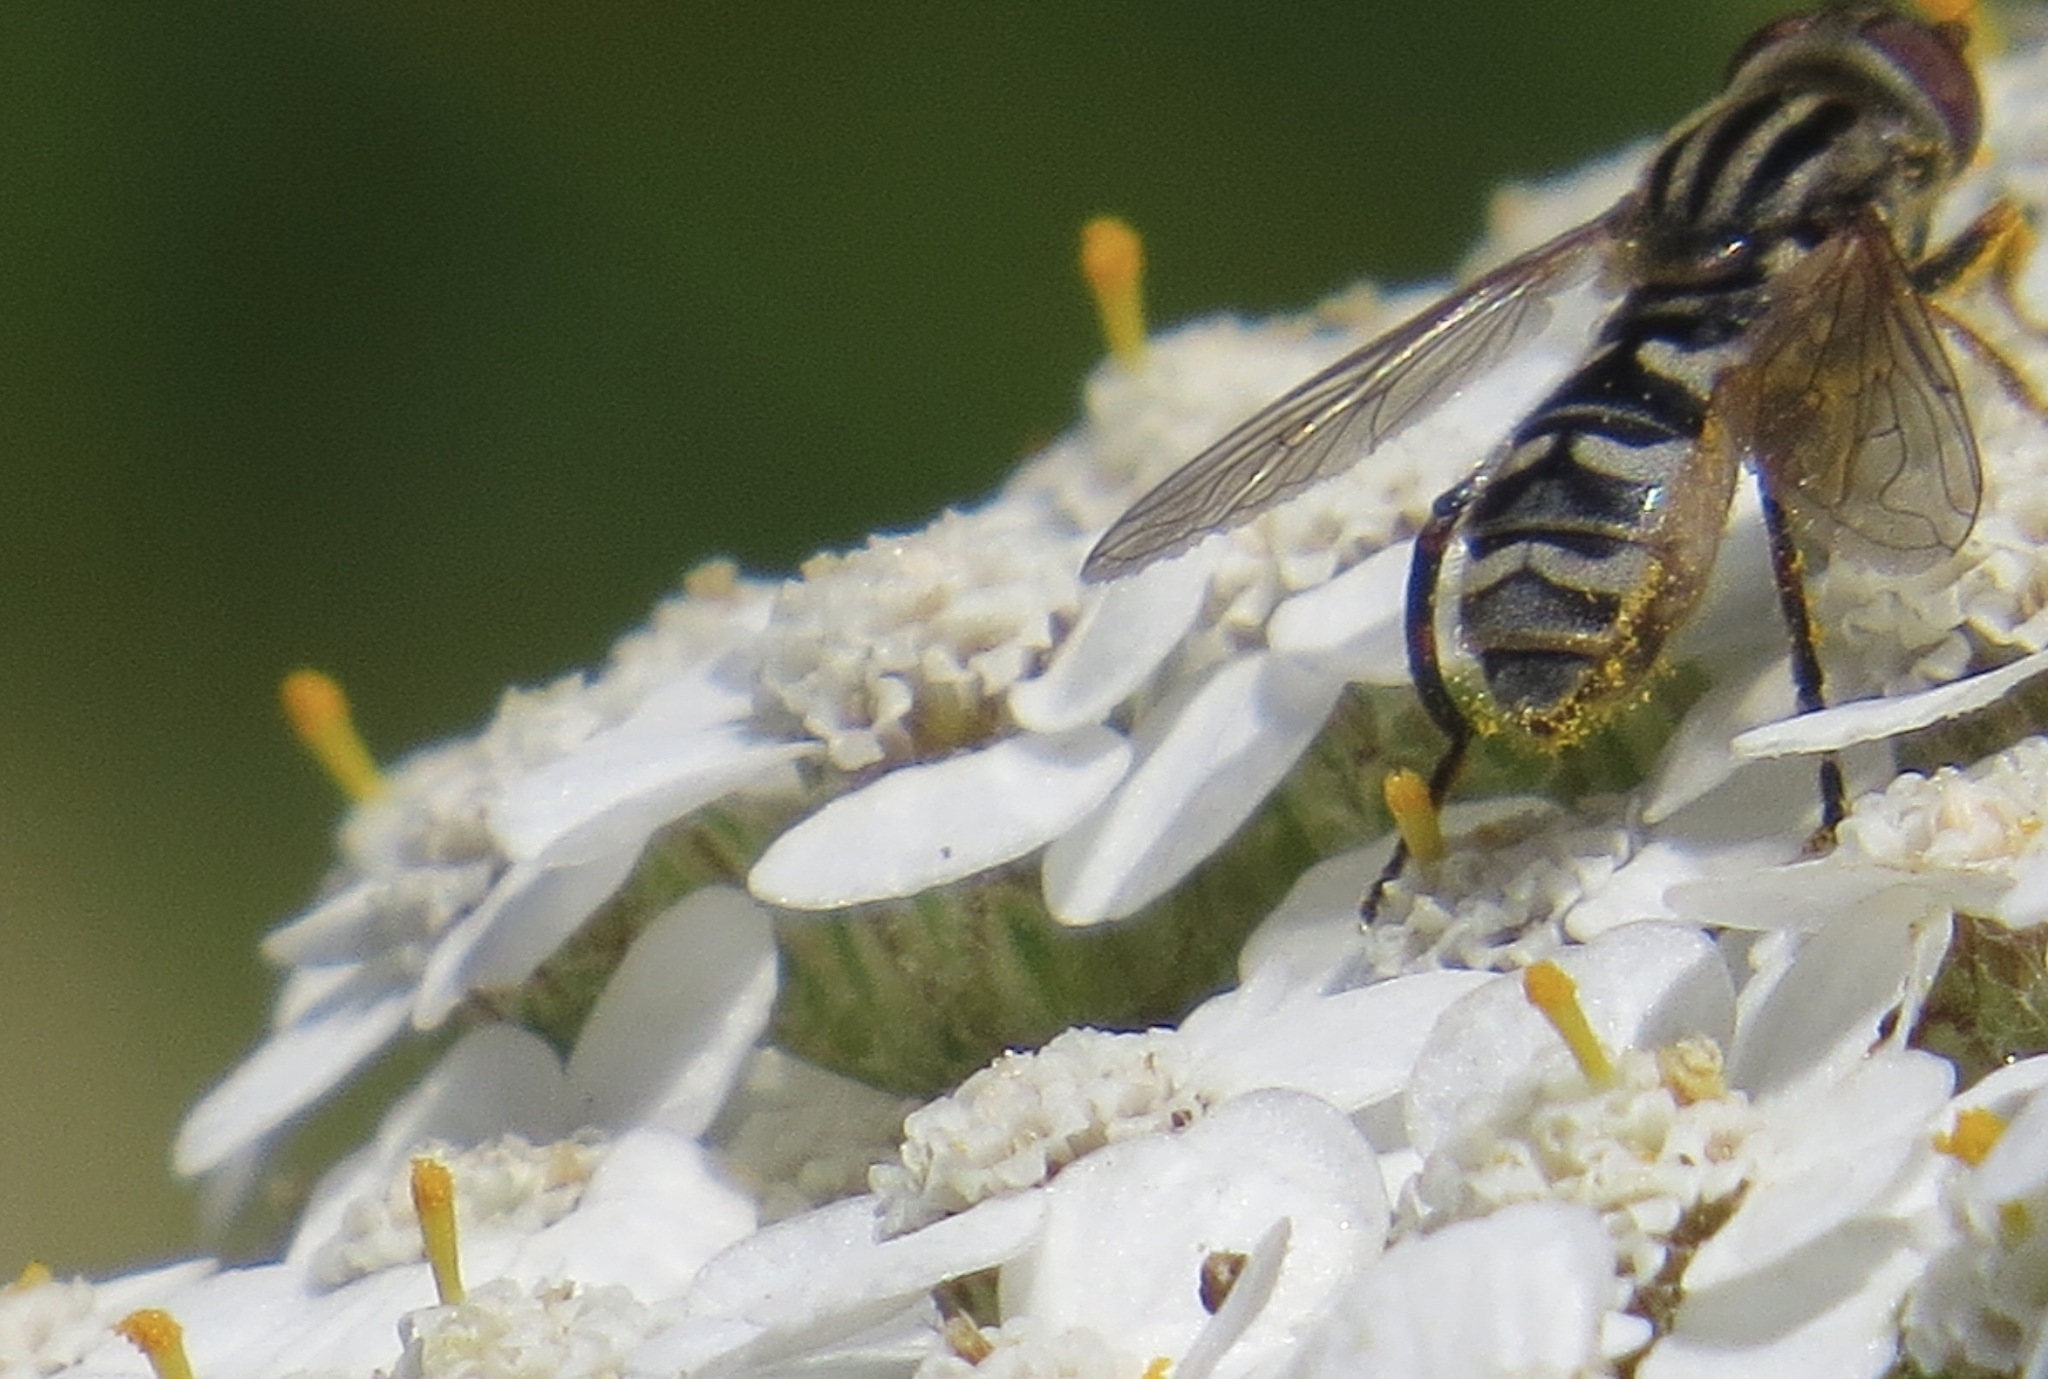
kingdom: Animalia
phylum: Arthropoda
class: Insecta
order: Diptera
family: Syrphidae
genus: Anasimyia
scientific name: Anasimyia chrysostomus
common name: Lump-legged swamp fly
